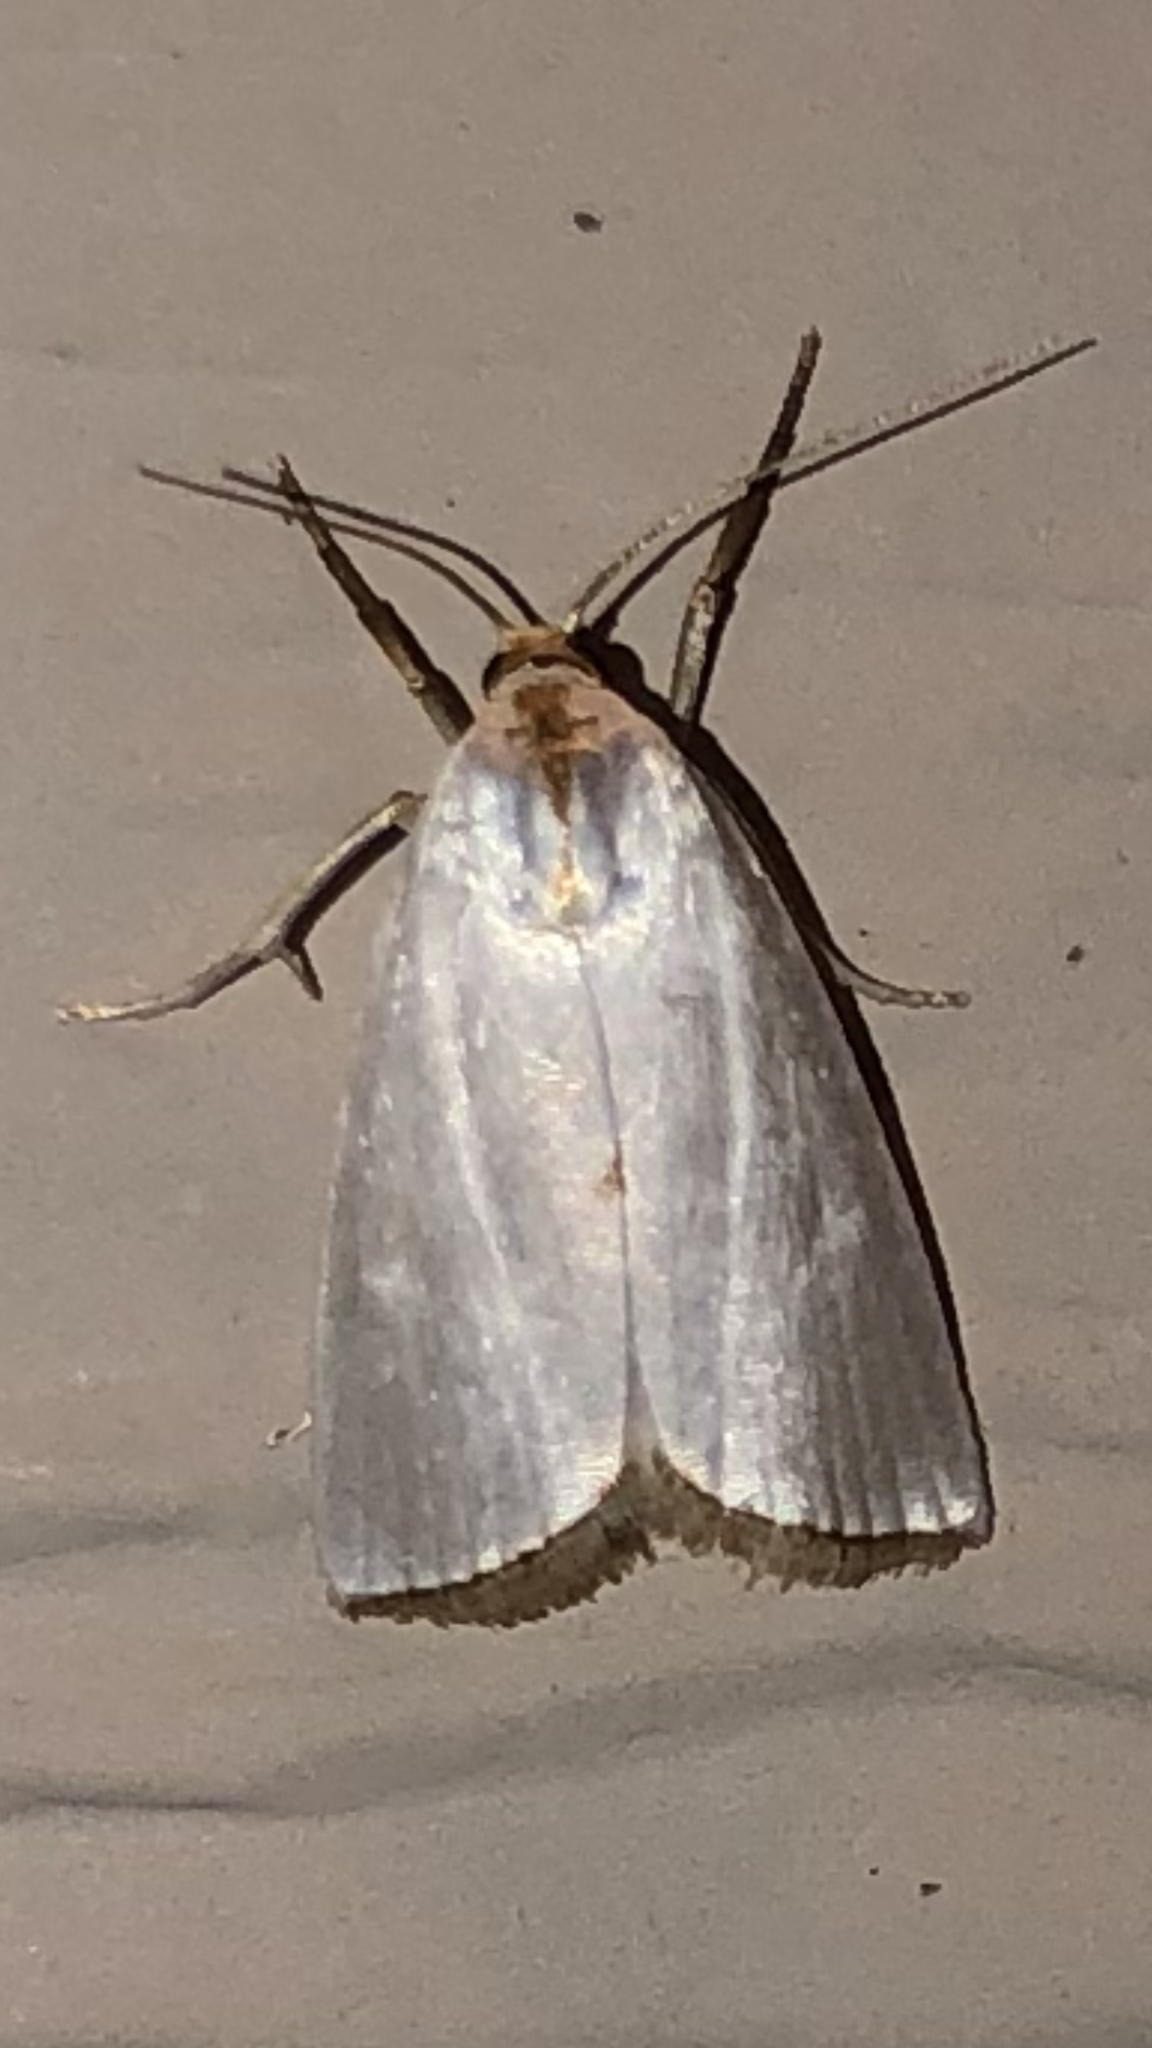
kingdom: Animalia
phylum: Arthropoda
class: Insecta
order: Lepidoptera
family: Crambidae
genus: Argyria
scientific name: Argyria nivalis
